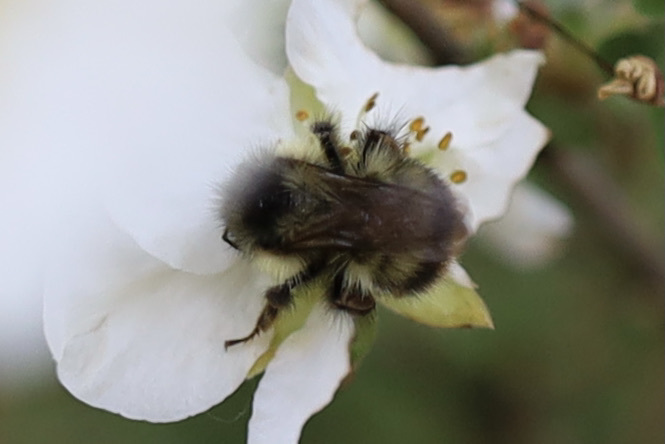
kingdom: Animalia
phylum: Arthropoda
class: Insecta
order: Hymenoptera
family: Apidae
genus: Bombus
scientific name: Bombus mixtus
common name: Fuzzy-horned bumble bee
